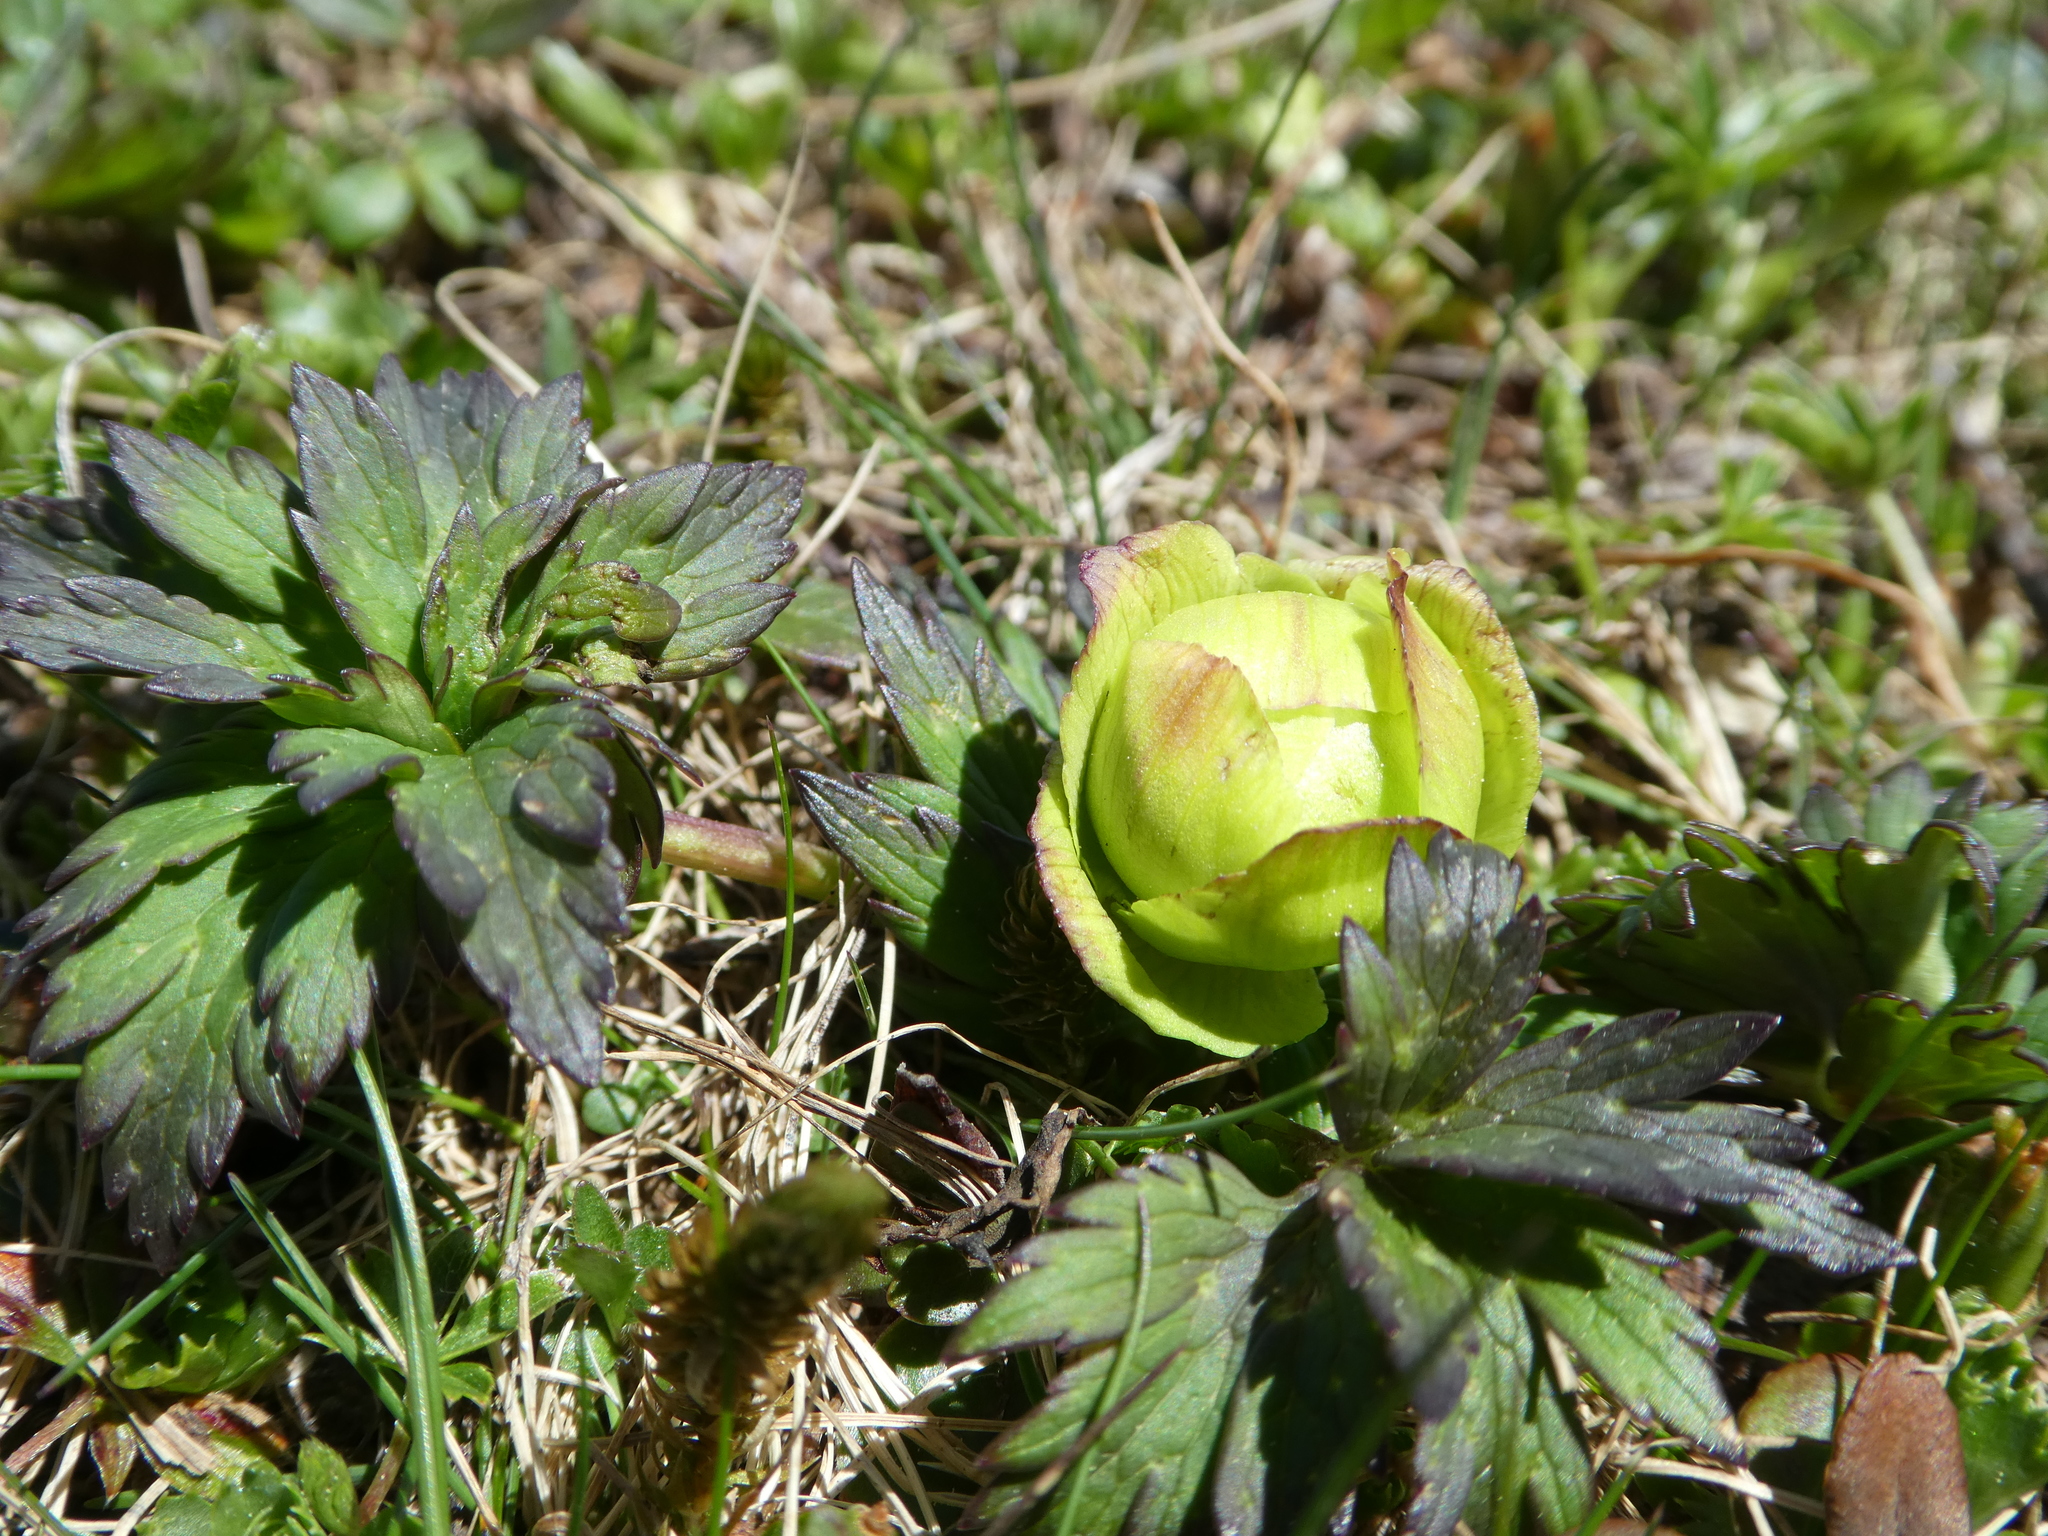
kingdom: Plantae
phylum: Tracheophyta
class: Magnoliopsida
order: Ranunculales
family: Ranunculaceae
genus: Trollius
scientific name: Trollius europaeus
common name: European globeflower
